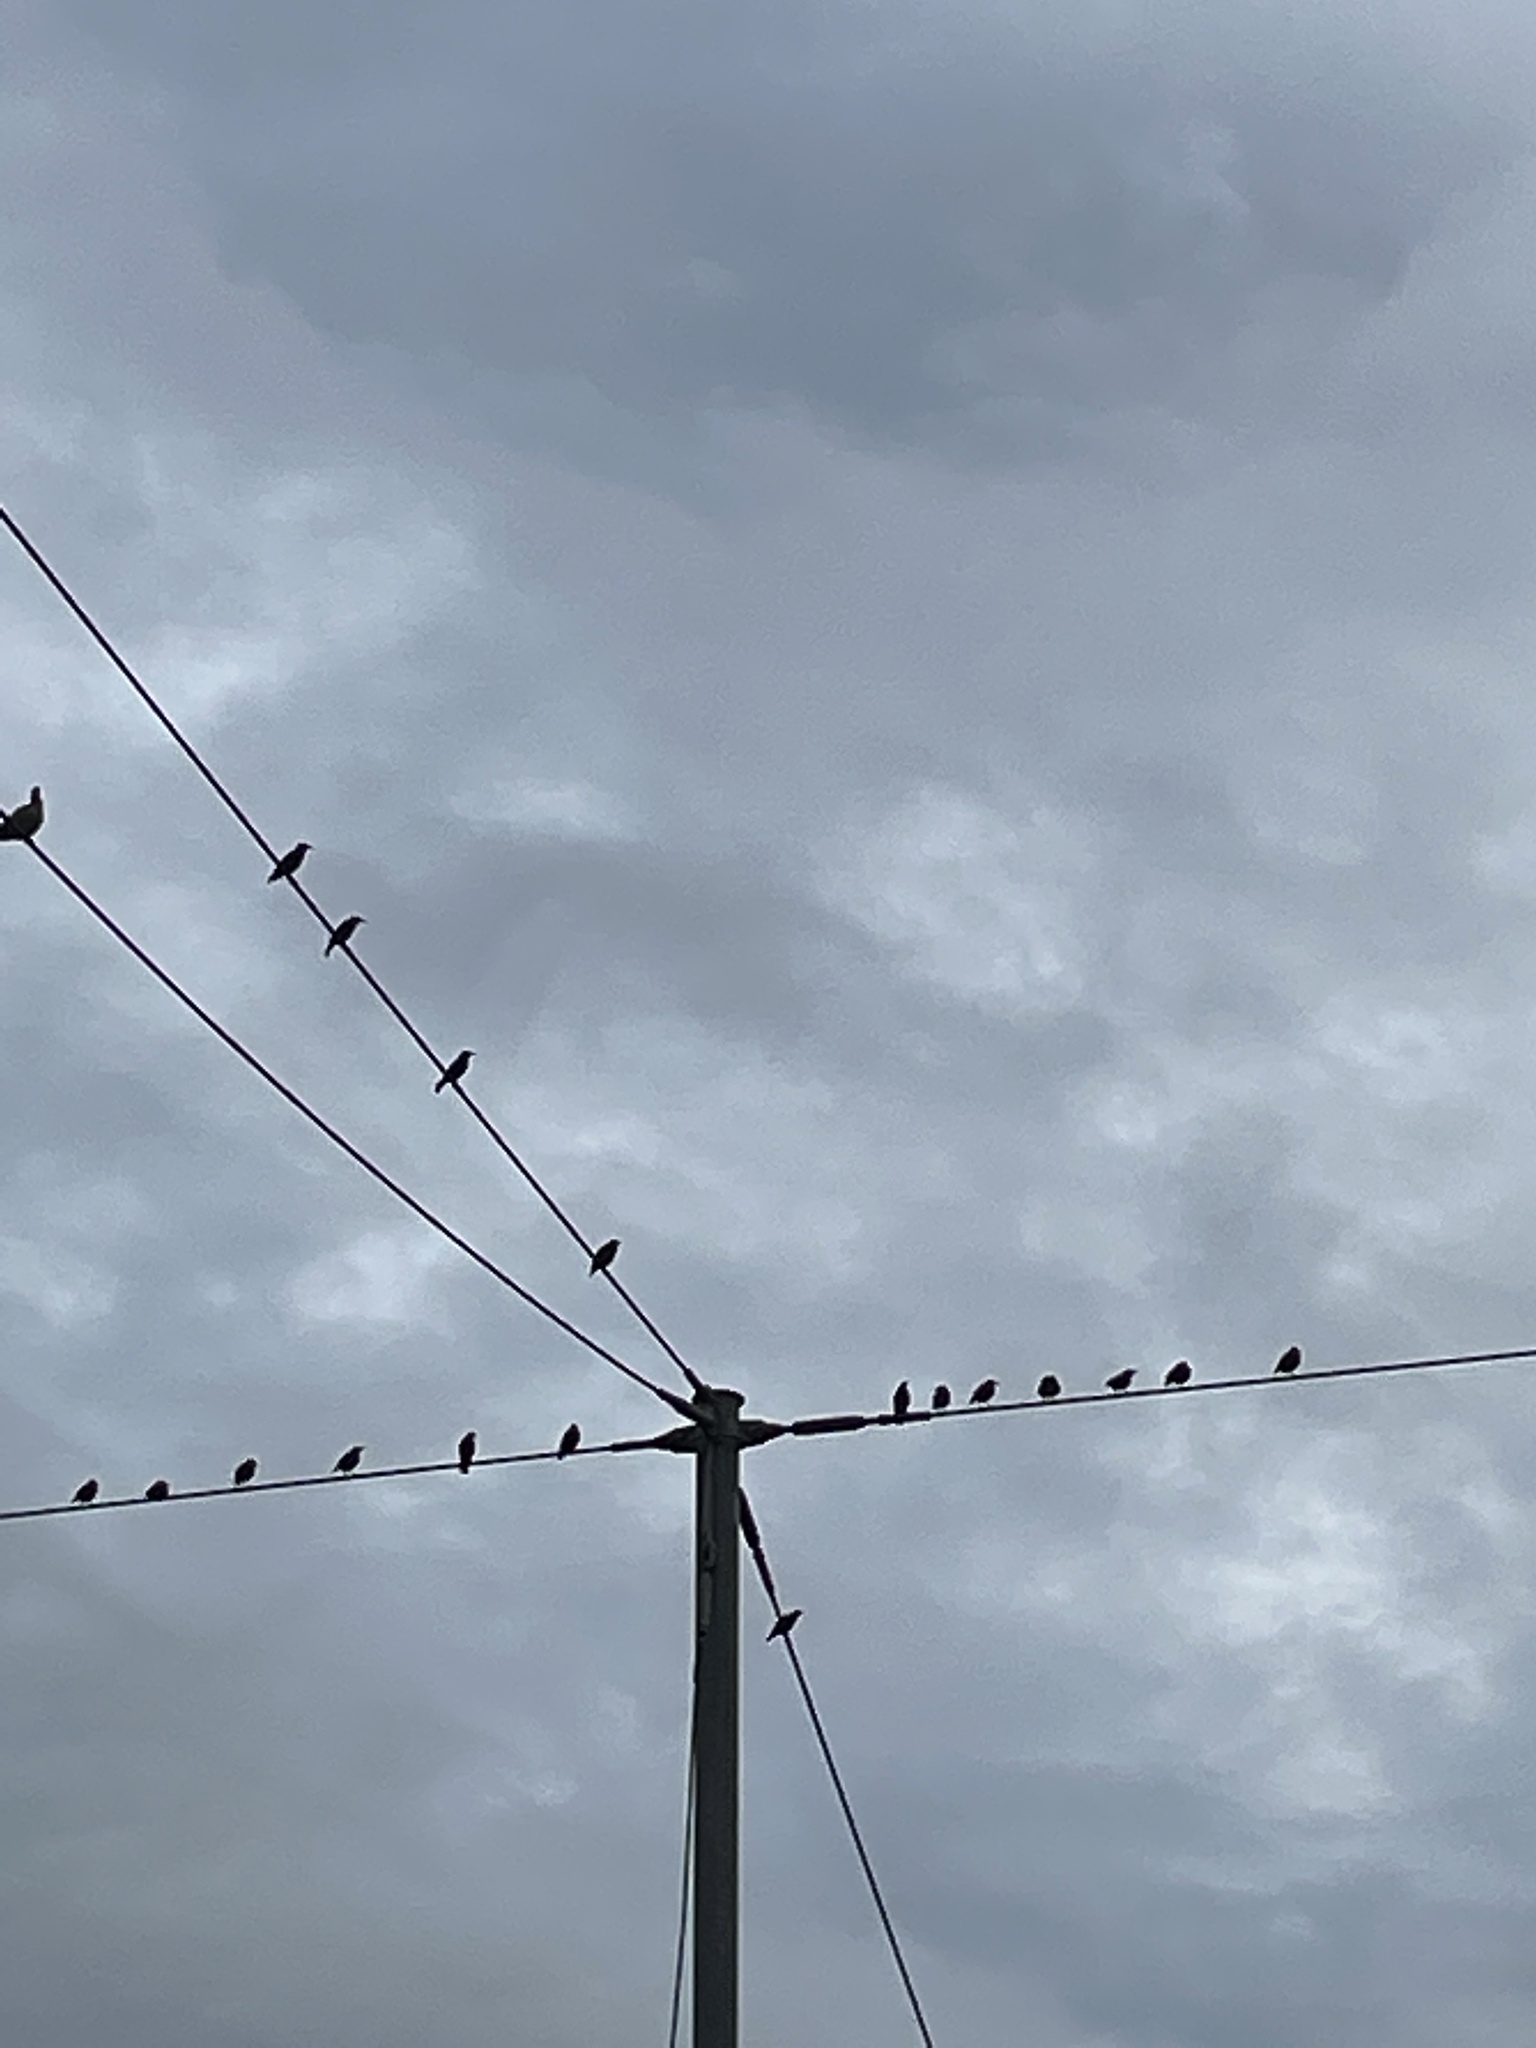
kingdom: Animalia
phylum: Chordata
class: Aves
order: Passeriformes
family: Sturnidae
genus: Sturnus
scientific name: Sturnus vulgaris
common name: Common starling
